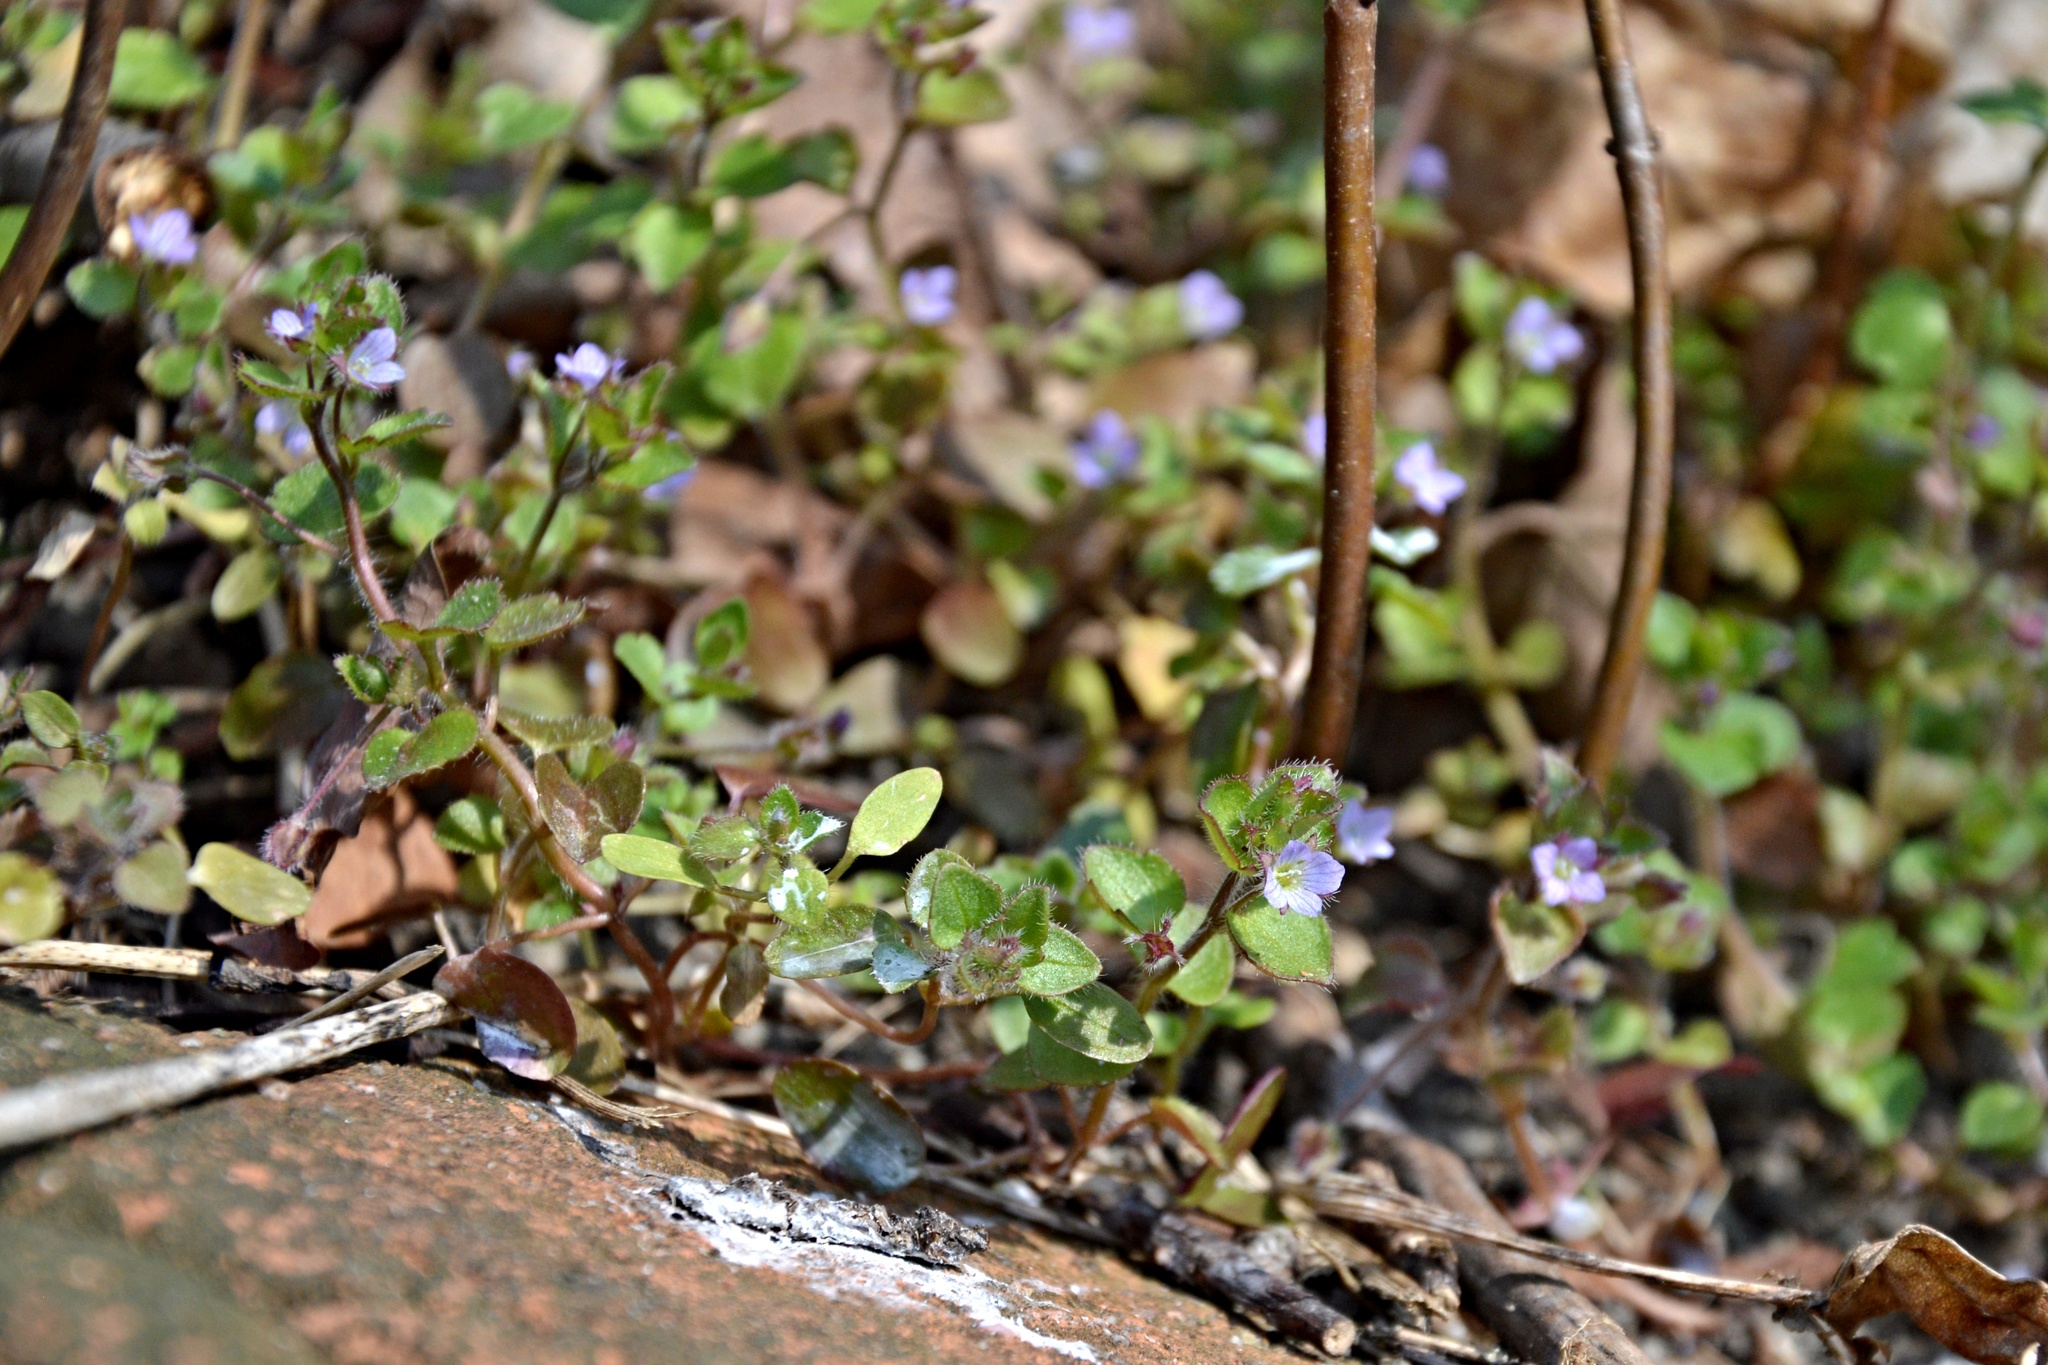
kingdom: Plantae
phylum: Tracheophyta
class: Magnoliopsida
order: Lamiales
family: Plantaginaceae
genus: Veronica
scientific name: Veronica sublobata
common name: False ivy-leaved speedwell
